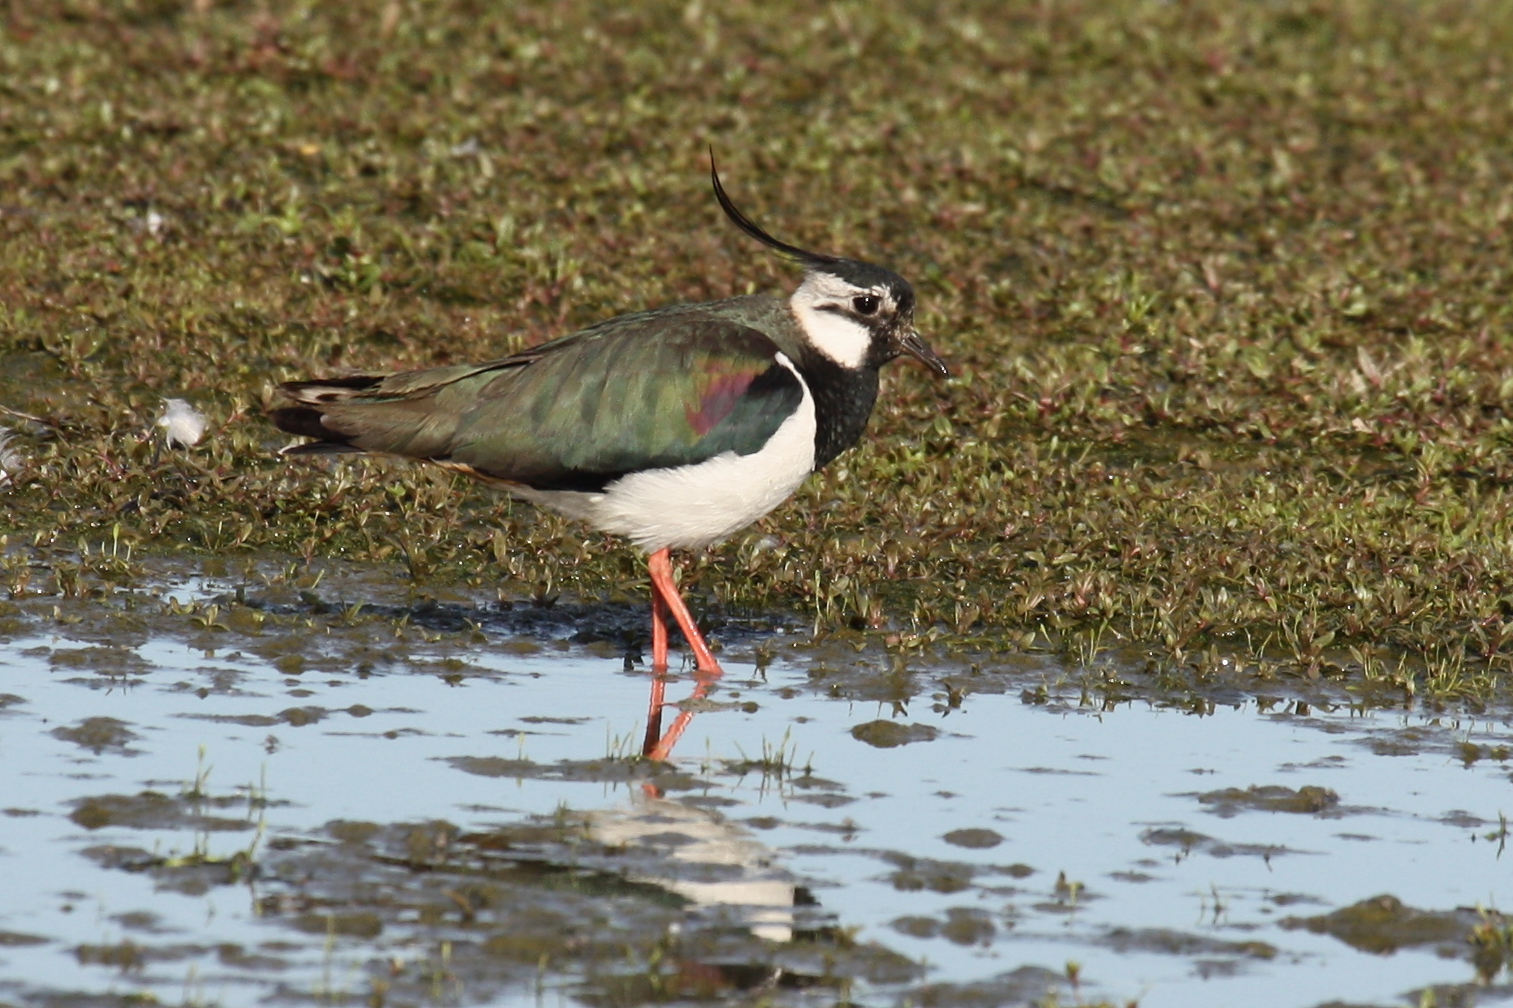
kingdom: Animalia
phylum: Chordata
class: Aves
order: Charadriiformes
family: Charadriidae
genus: Vanellus
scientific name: Vanellus vanellus
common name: Northern lapwing
